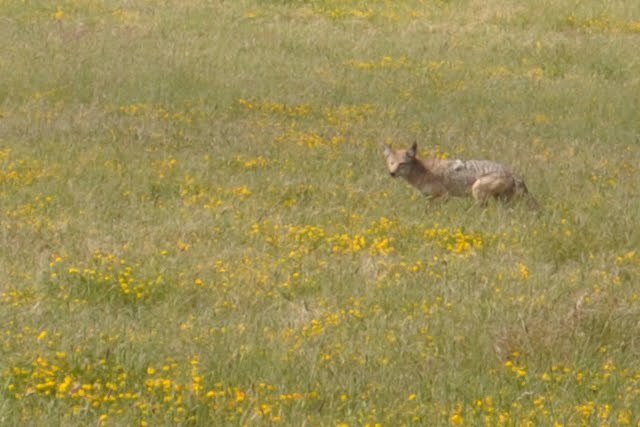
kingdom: Animalia
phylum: Chordata
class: Mammalia
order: Carnivora
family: Canidae
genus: Canis
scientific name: Canis latrans
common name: Coyote
